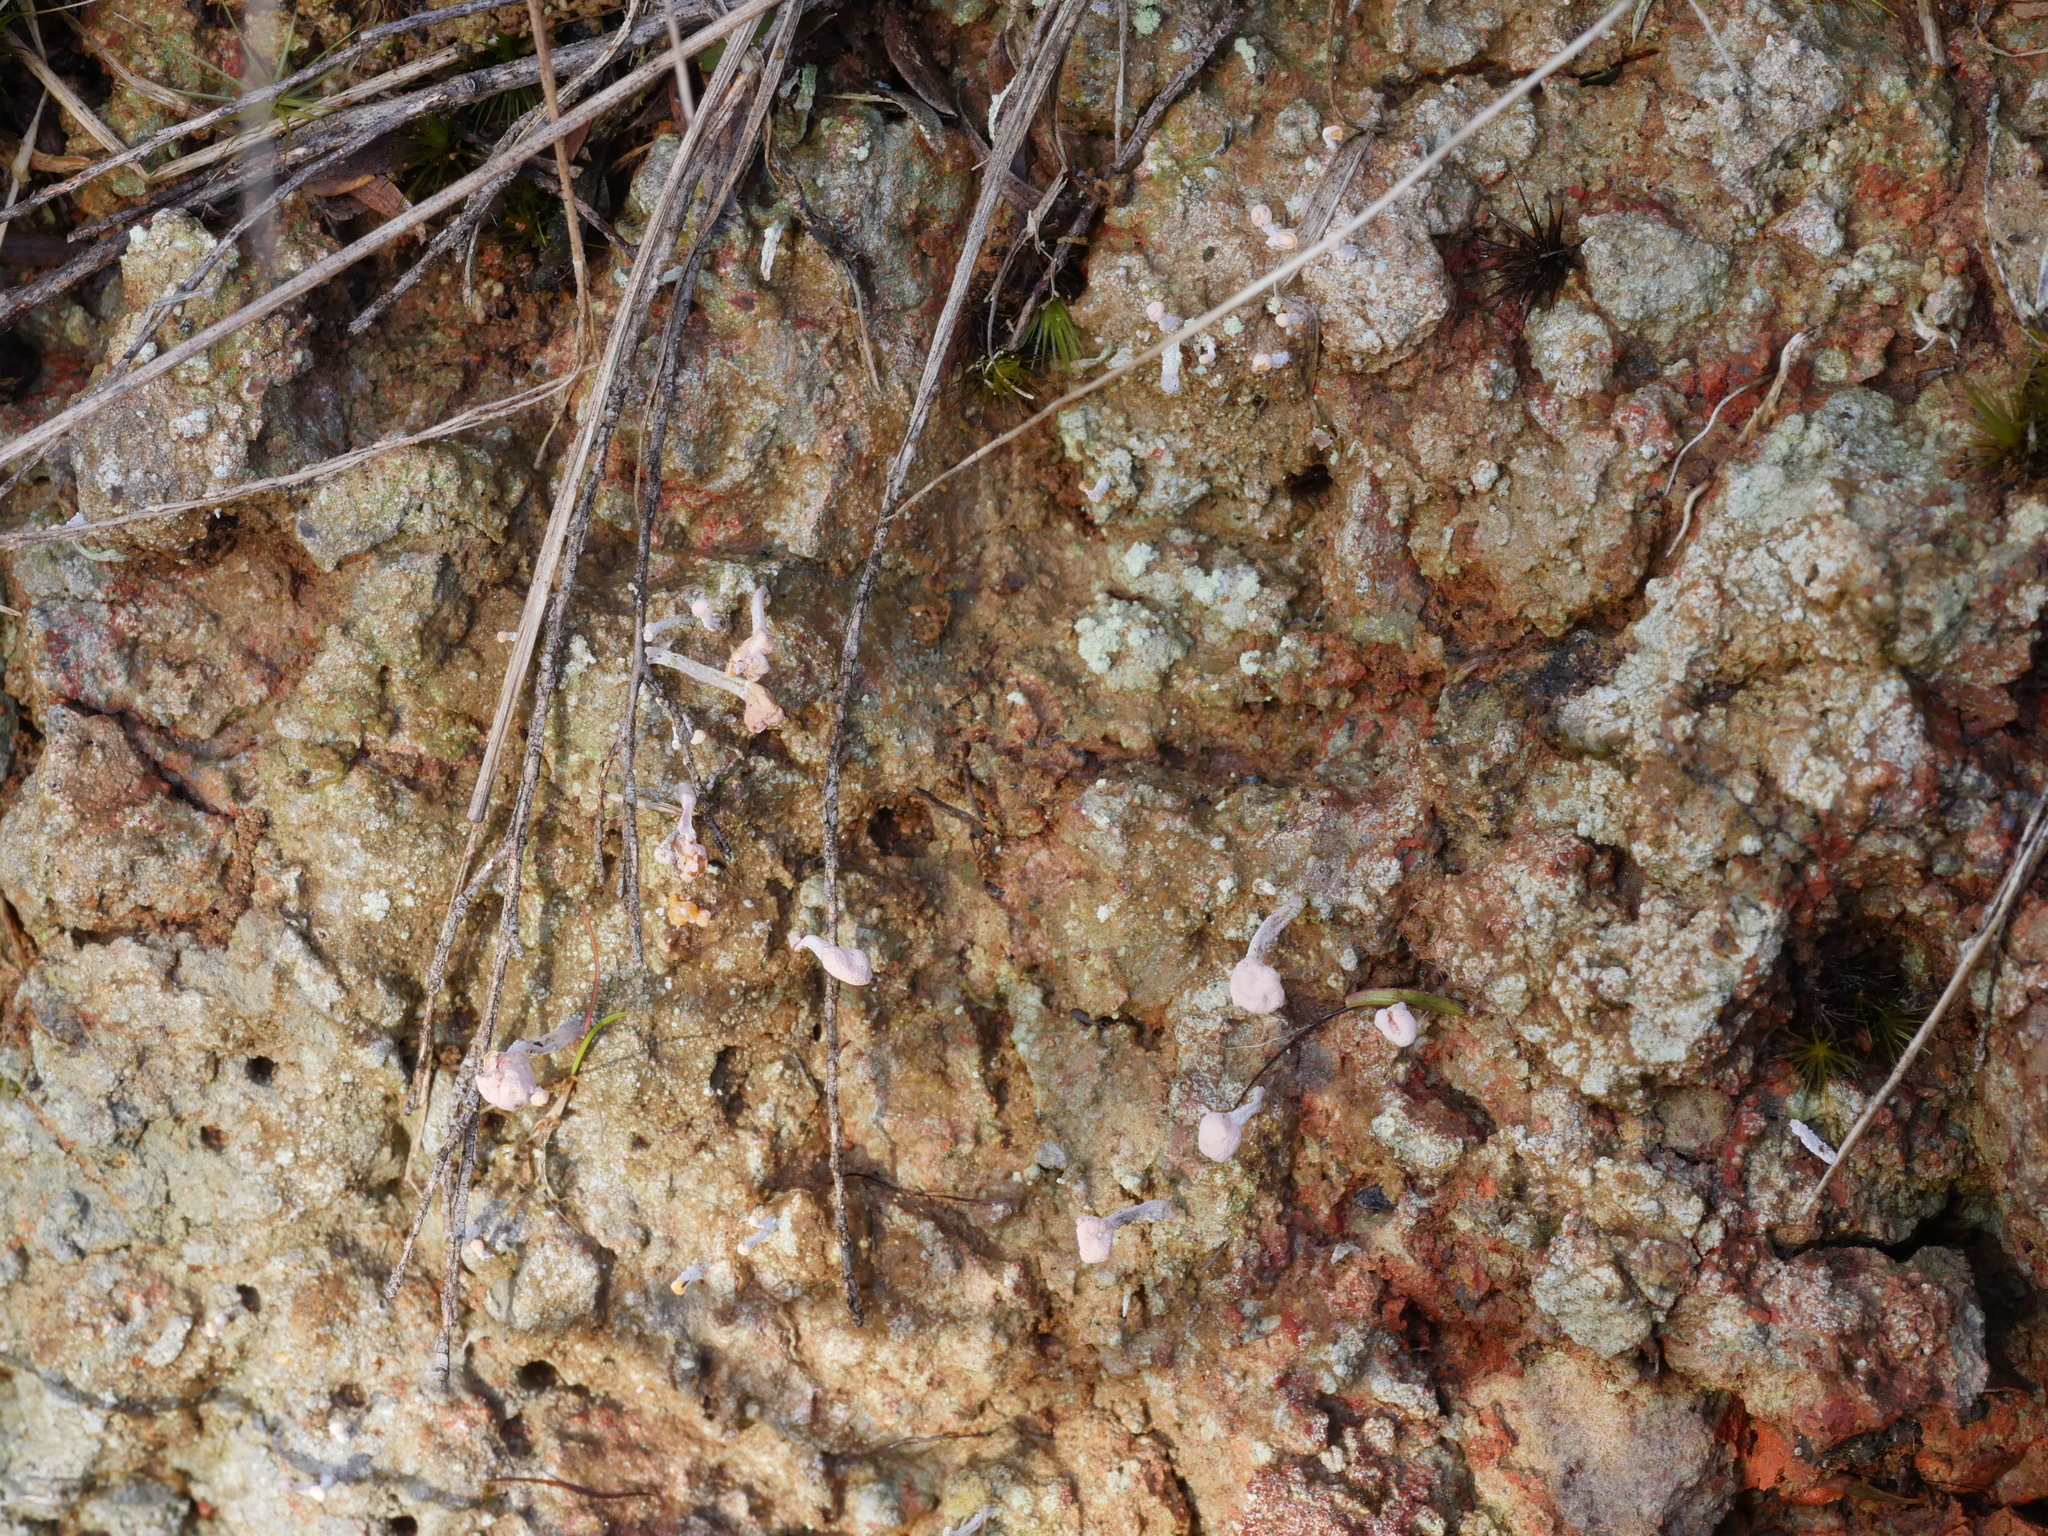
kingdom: Fungi
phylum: Ascomycota
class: Lecanoromycetes
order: Pertusariales
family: Icmadophilaceae
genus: Dibaeis
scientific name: Dibaeis arcuata
